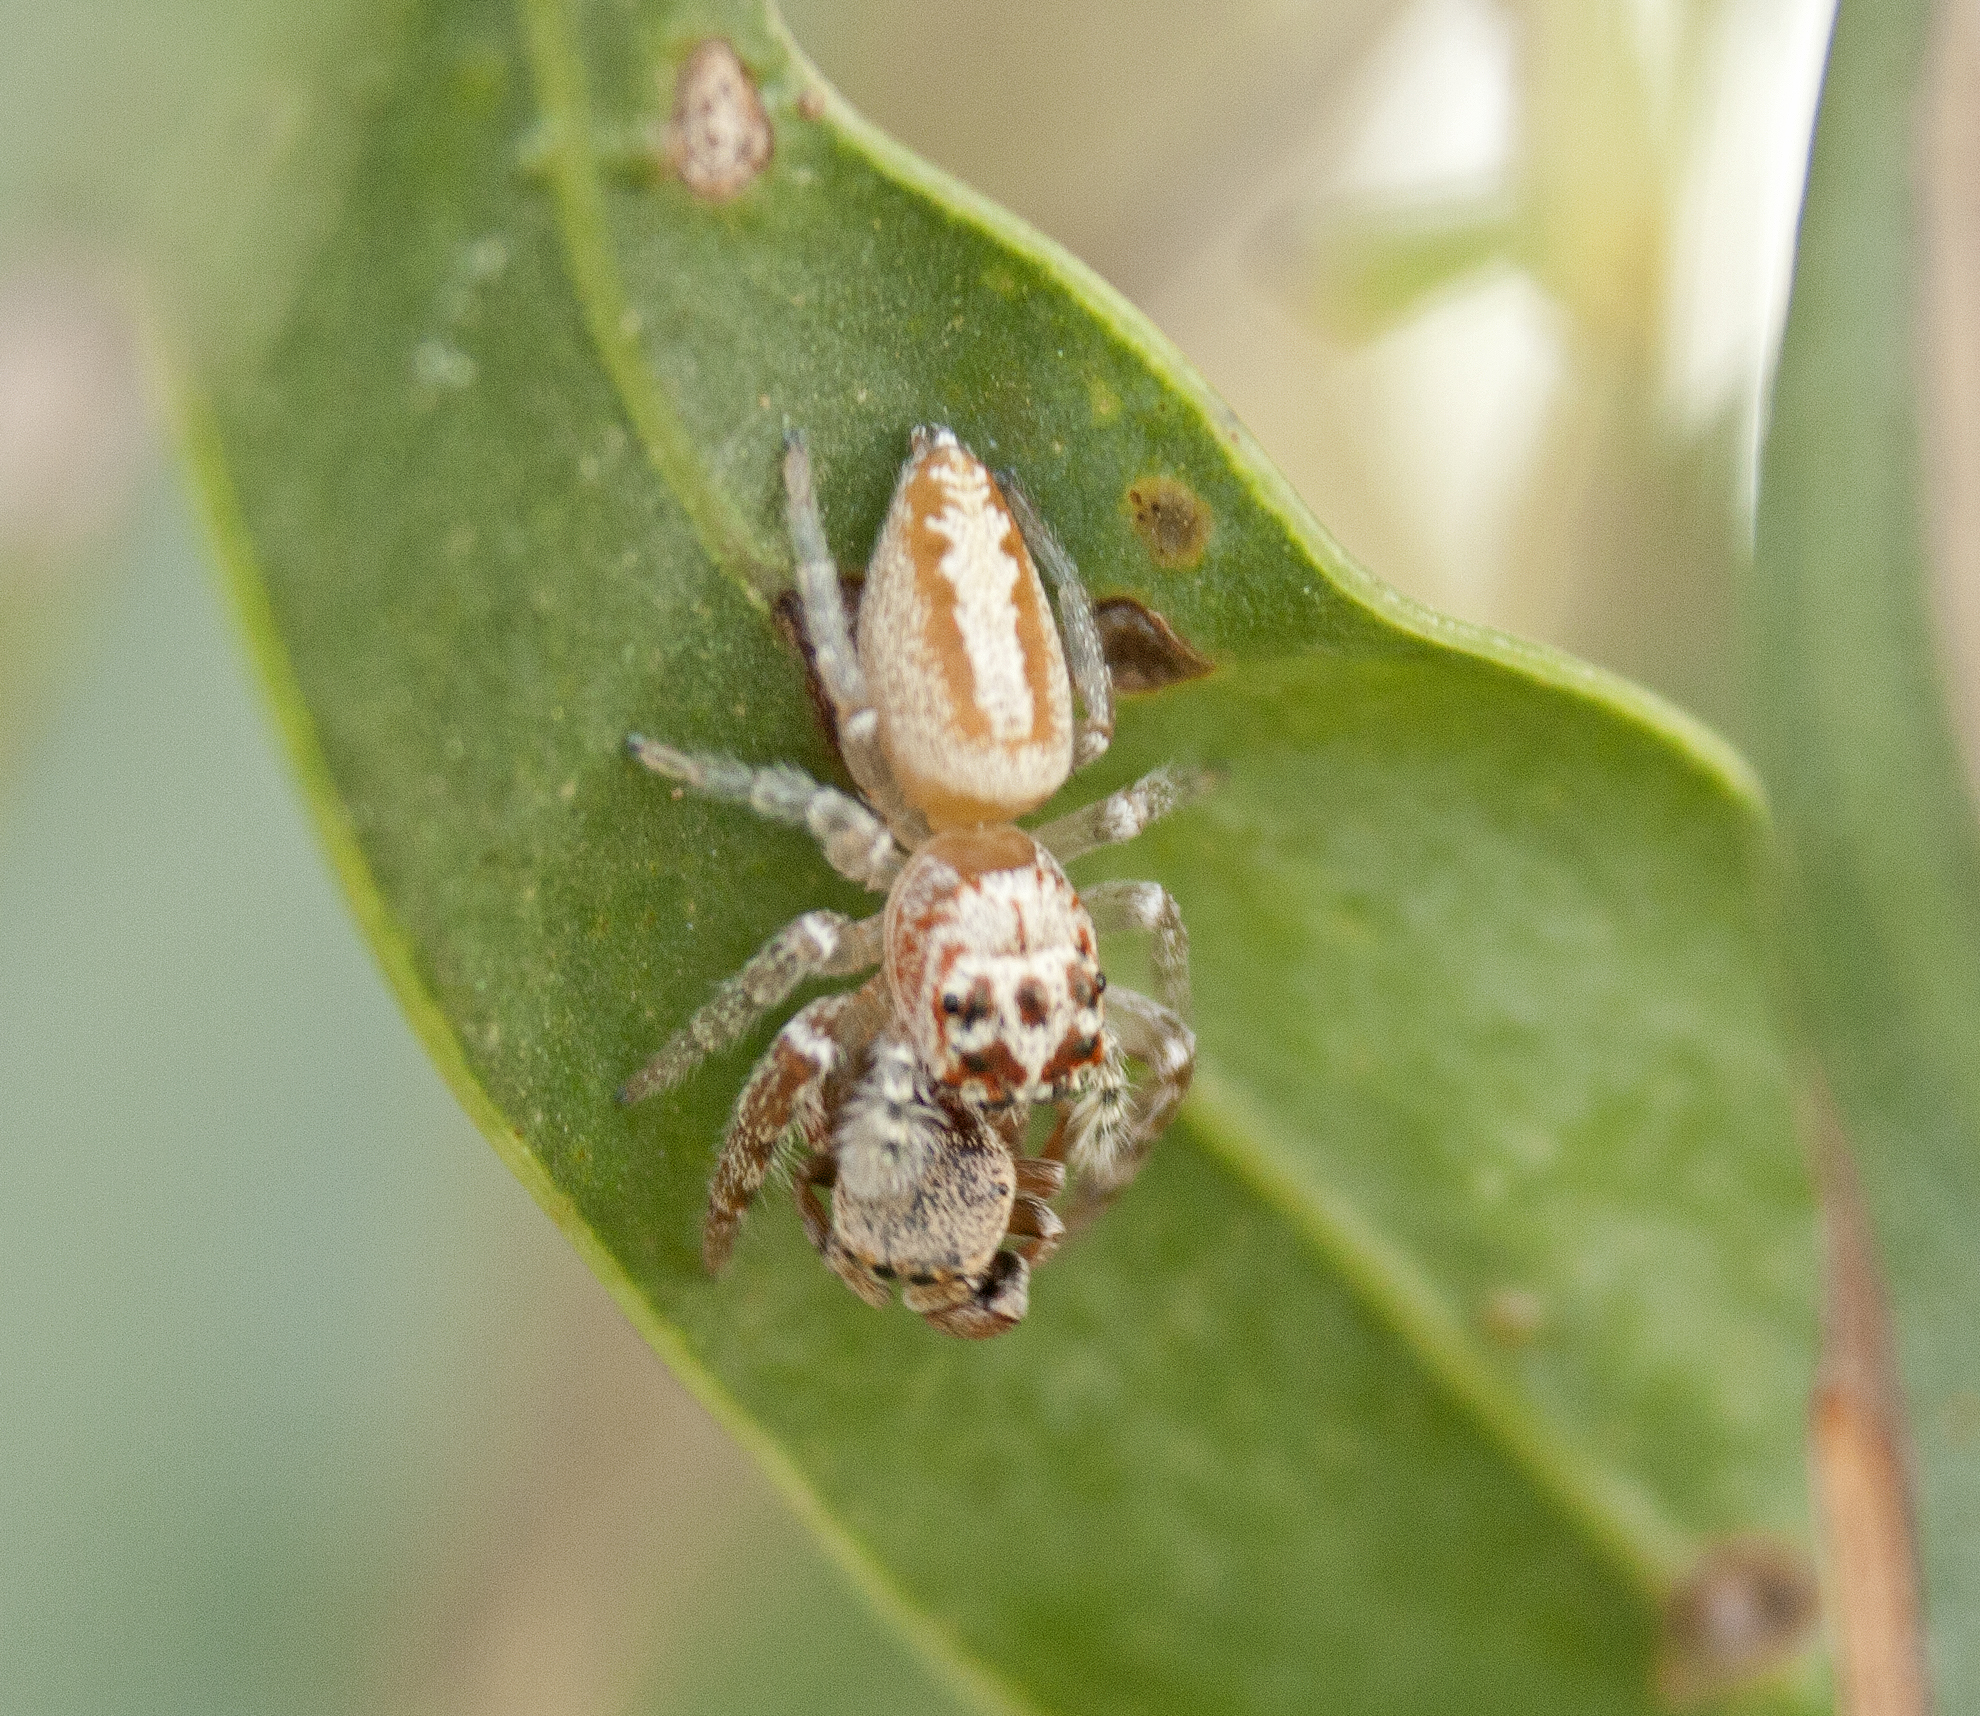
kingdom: Animalia
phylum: Arthropoda
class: Arachnida
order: Araneae
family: Salticidae
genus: Opisthoncus
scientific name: Opisthoncus alborufescens
